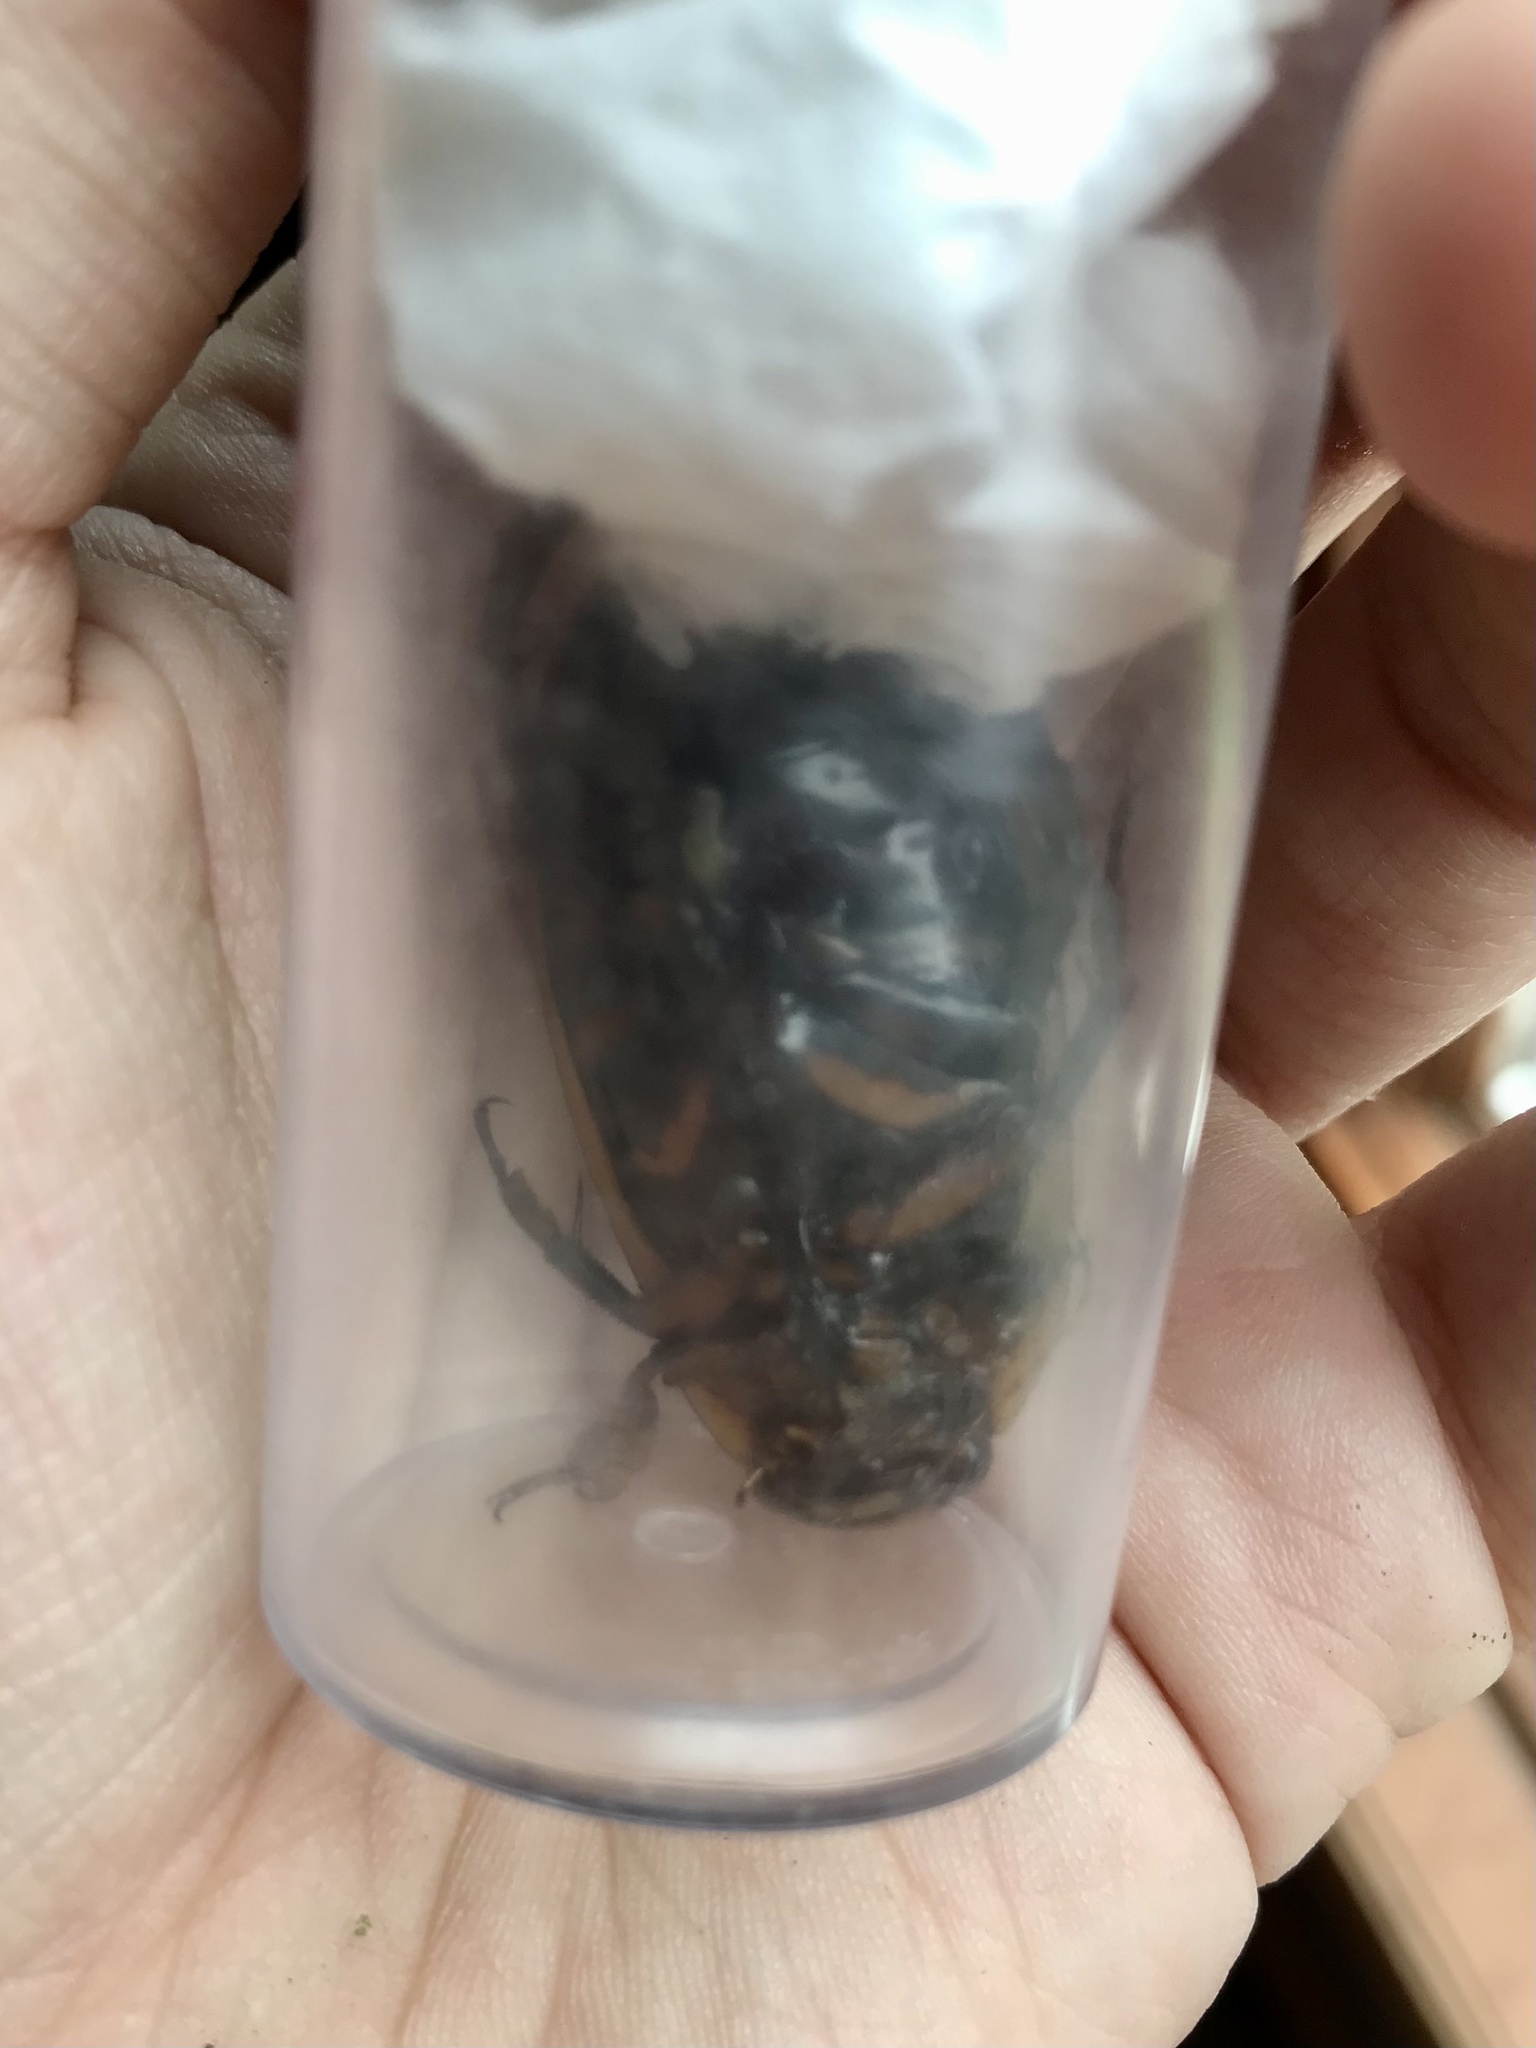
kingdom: Animalia
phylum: Arthropoda
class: Insecta
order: Coleoptera
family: Dytiscidae
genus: Dytiscus
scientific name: Dytiscus harrisii
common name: Harris's diving beetle
